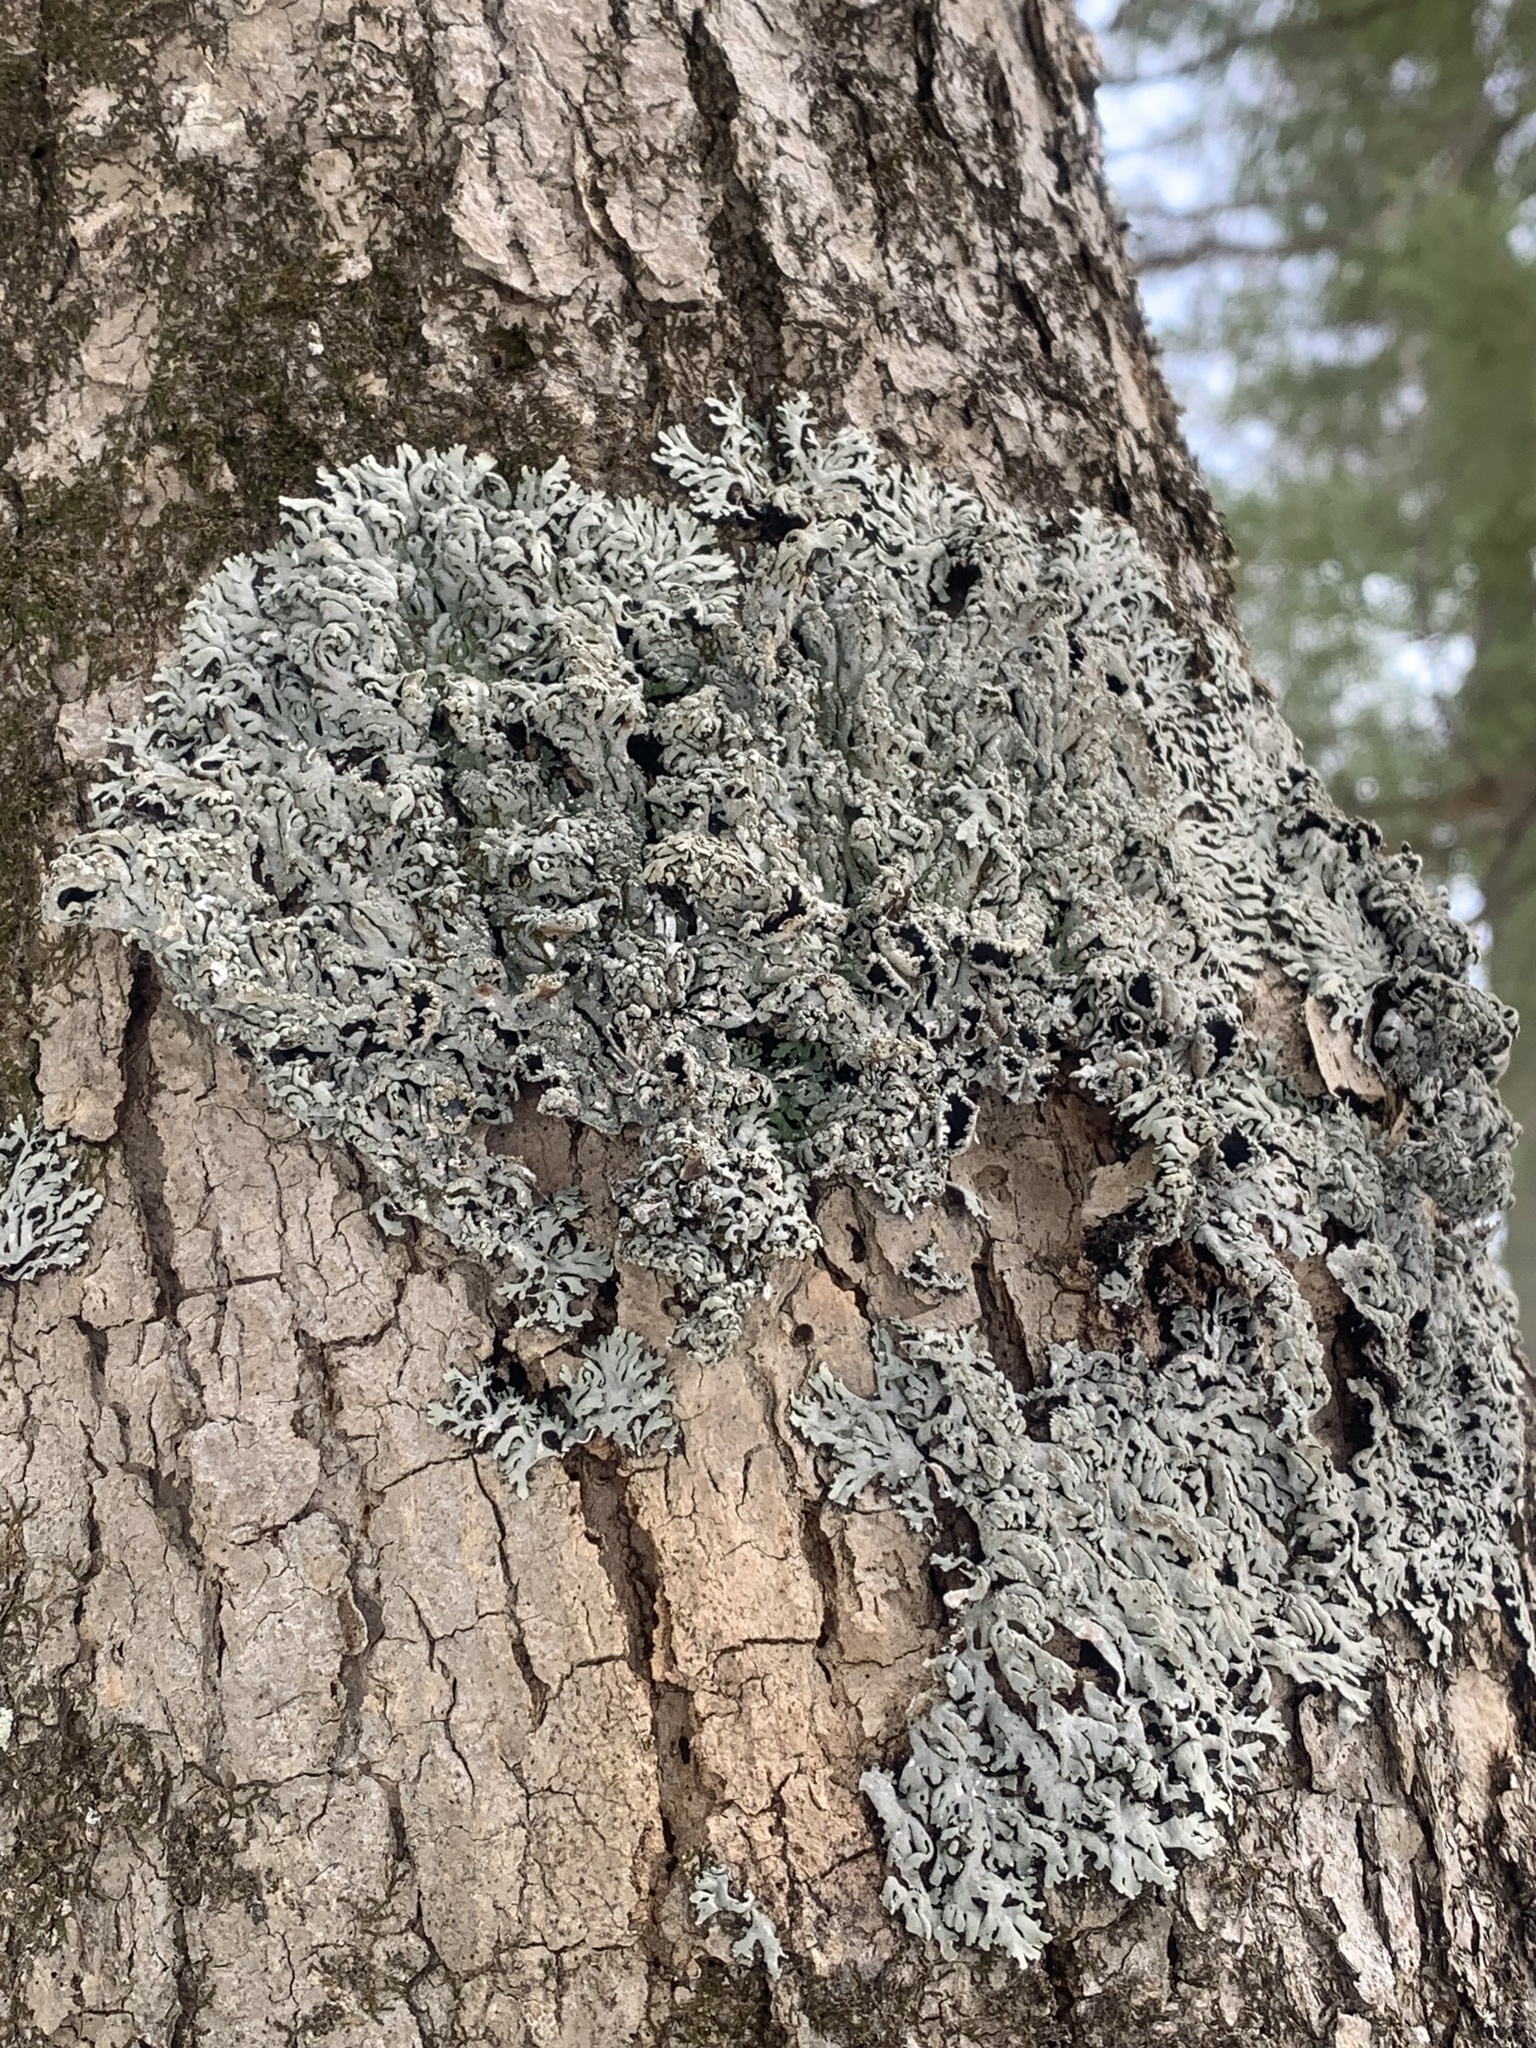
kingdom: Fungi
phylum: Ascomycota
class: Lecanoromycetes
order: Caliciales
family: Physciaceae
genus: Polyblastidium
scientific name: Polyblastidium hypoleucum
